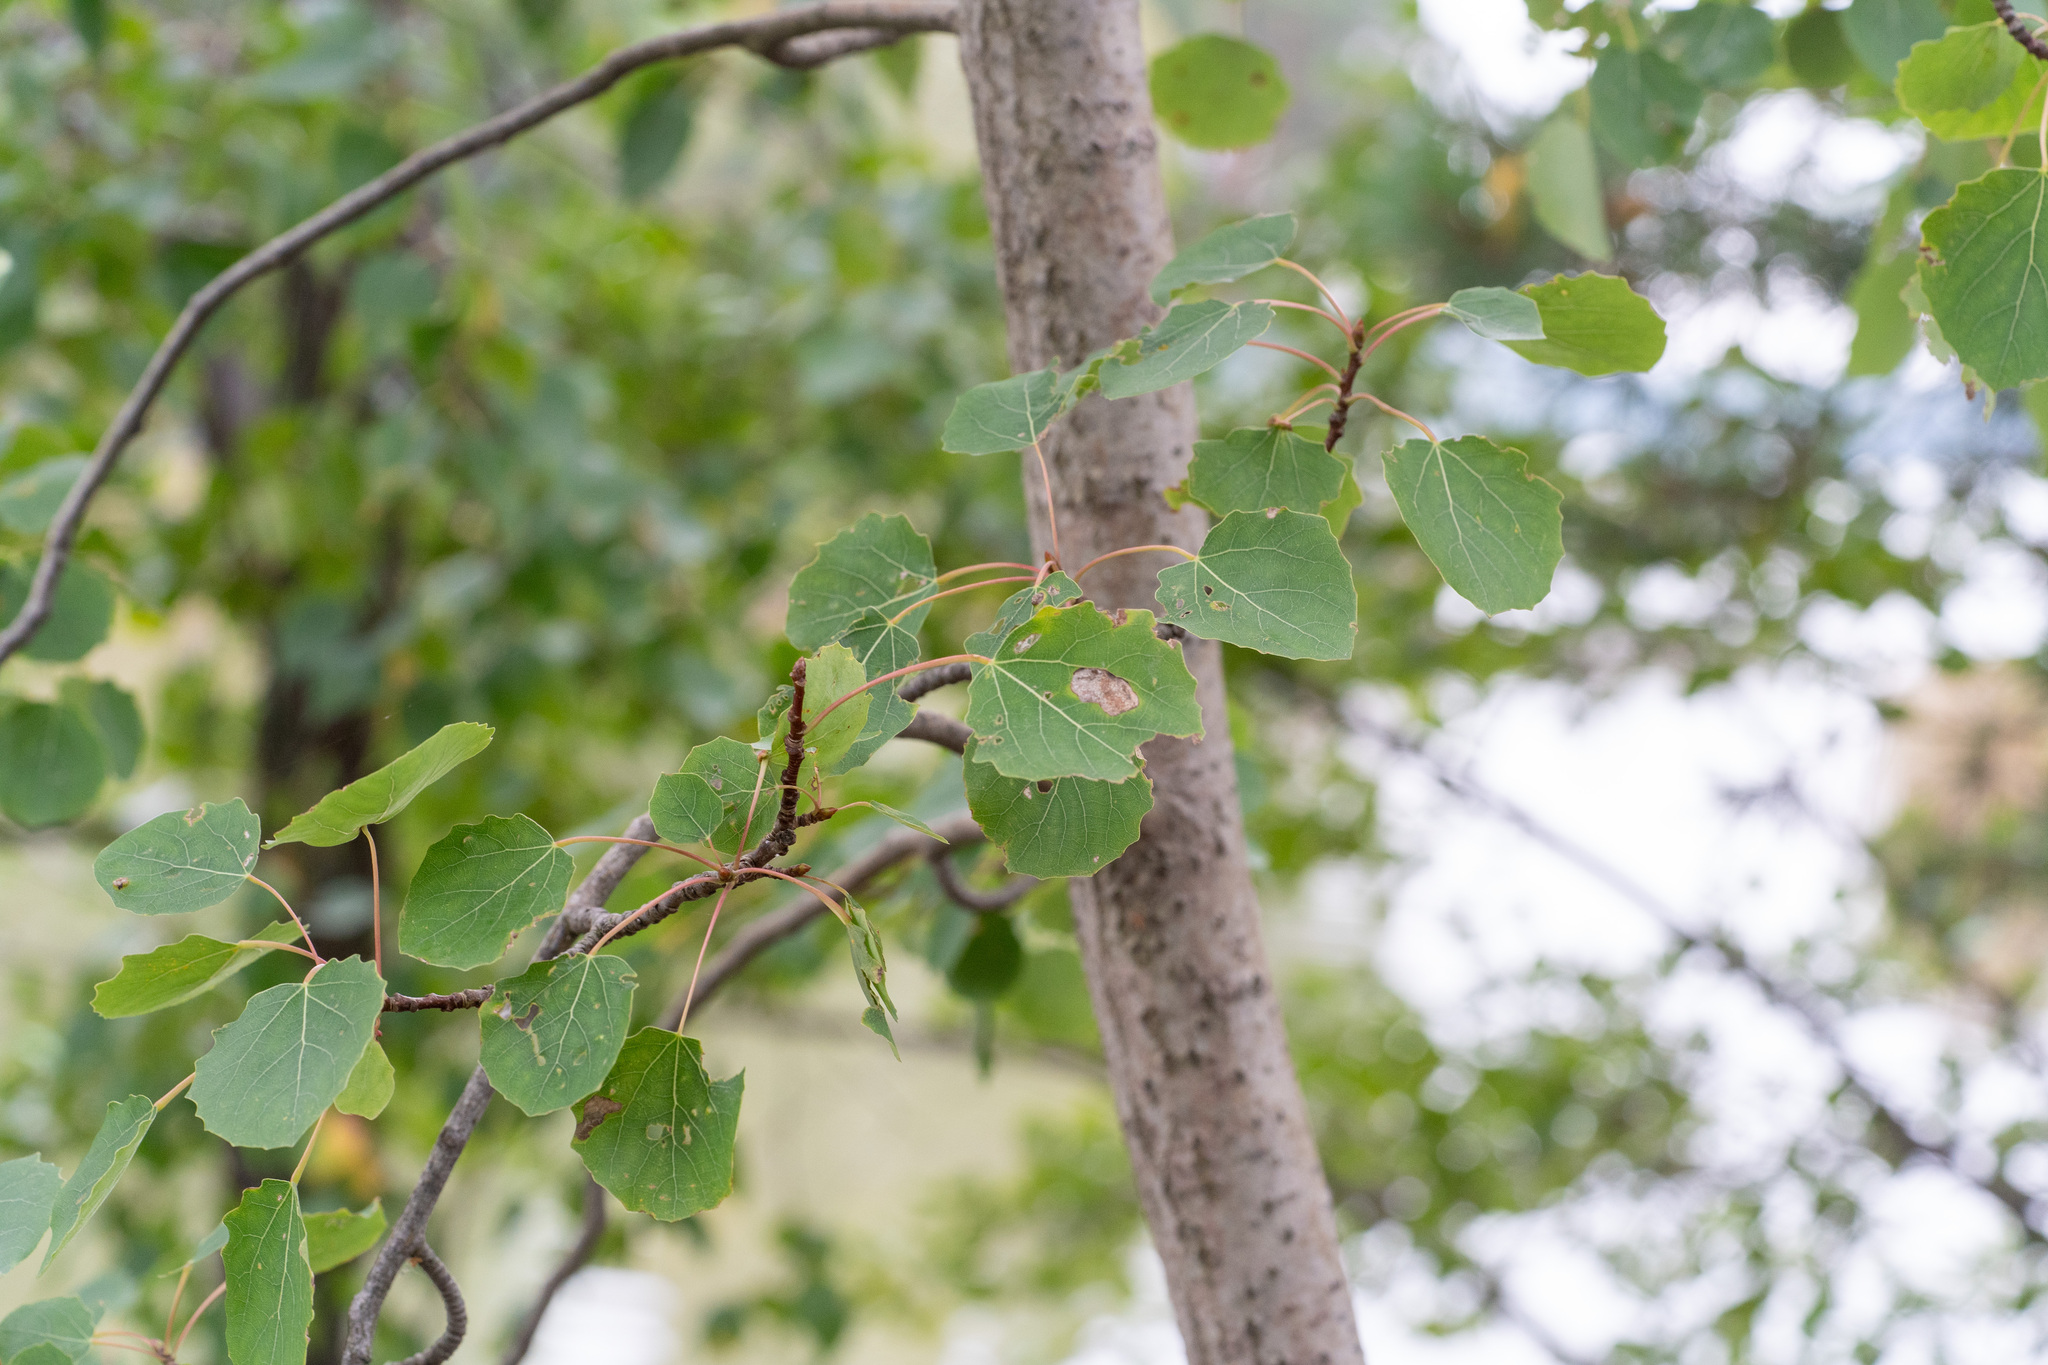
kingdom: Plantae
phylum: Tracheophyta
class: Magnoliopsida
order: Malpighiales
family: Salicaceae
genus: Populus
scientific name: Populus tremula
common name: European aspen
